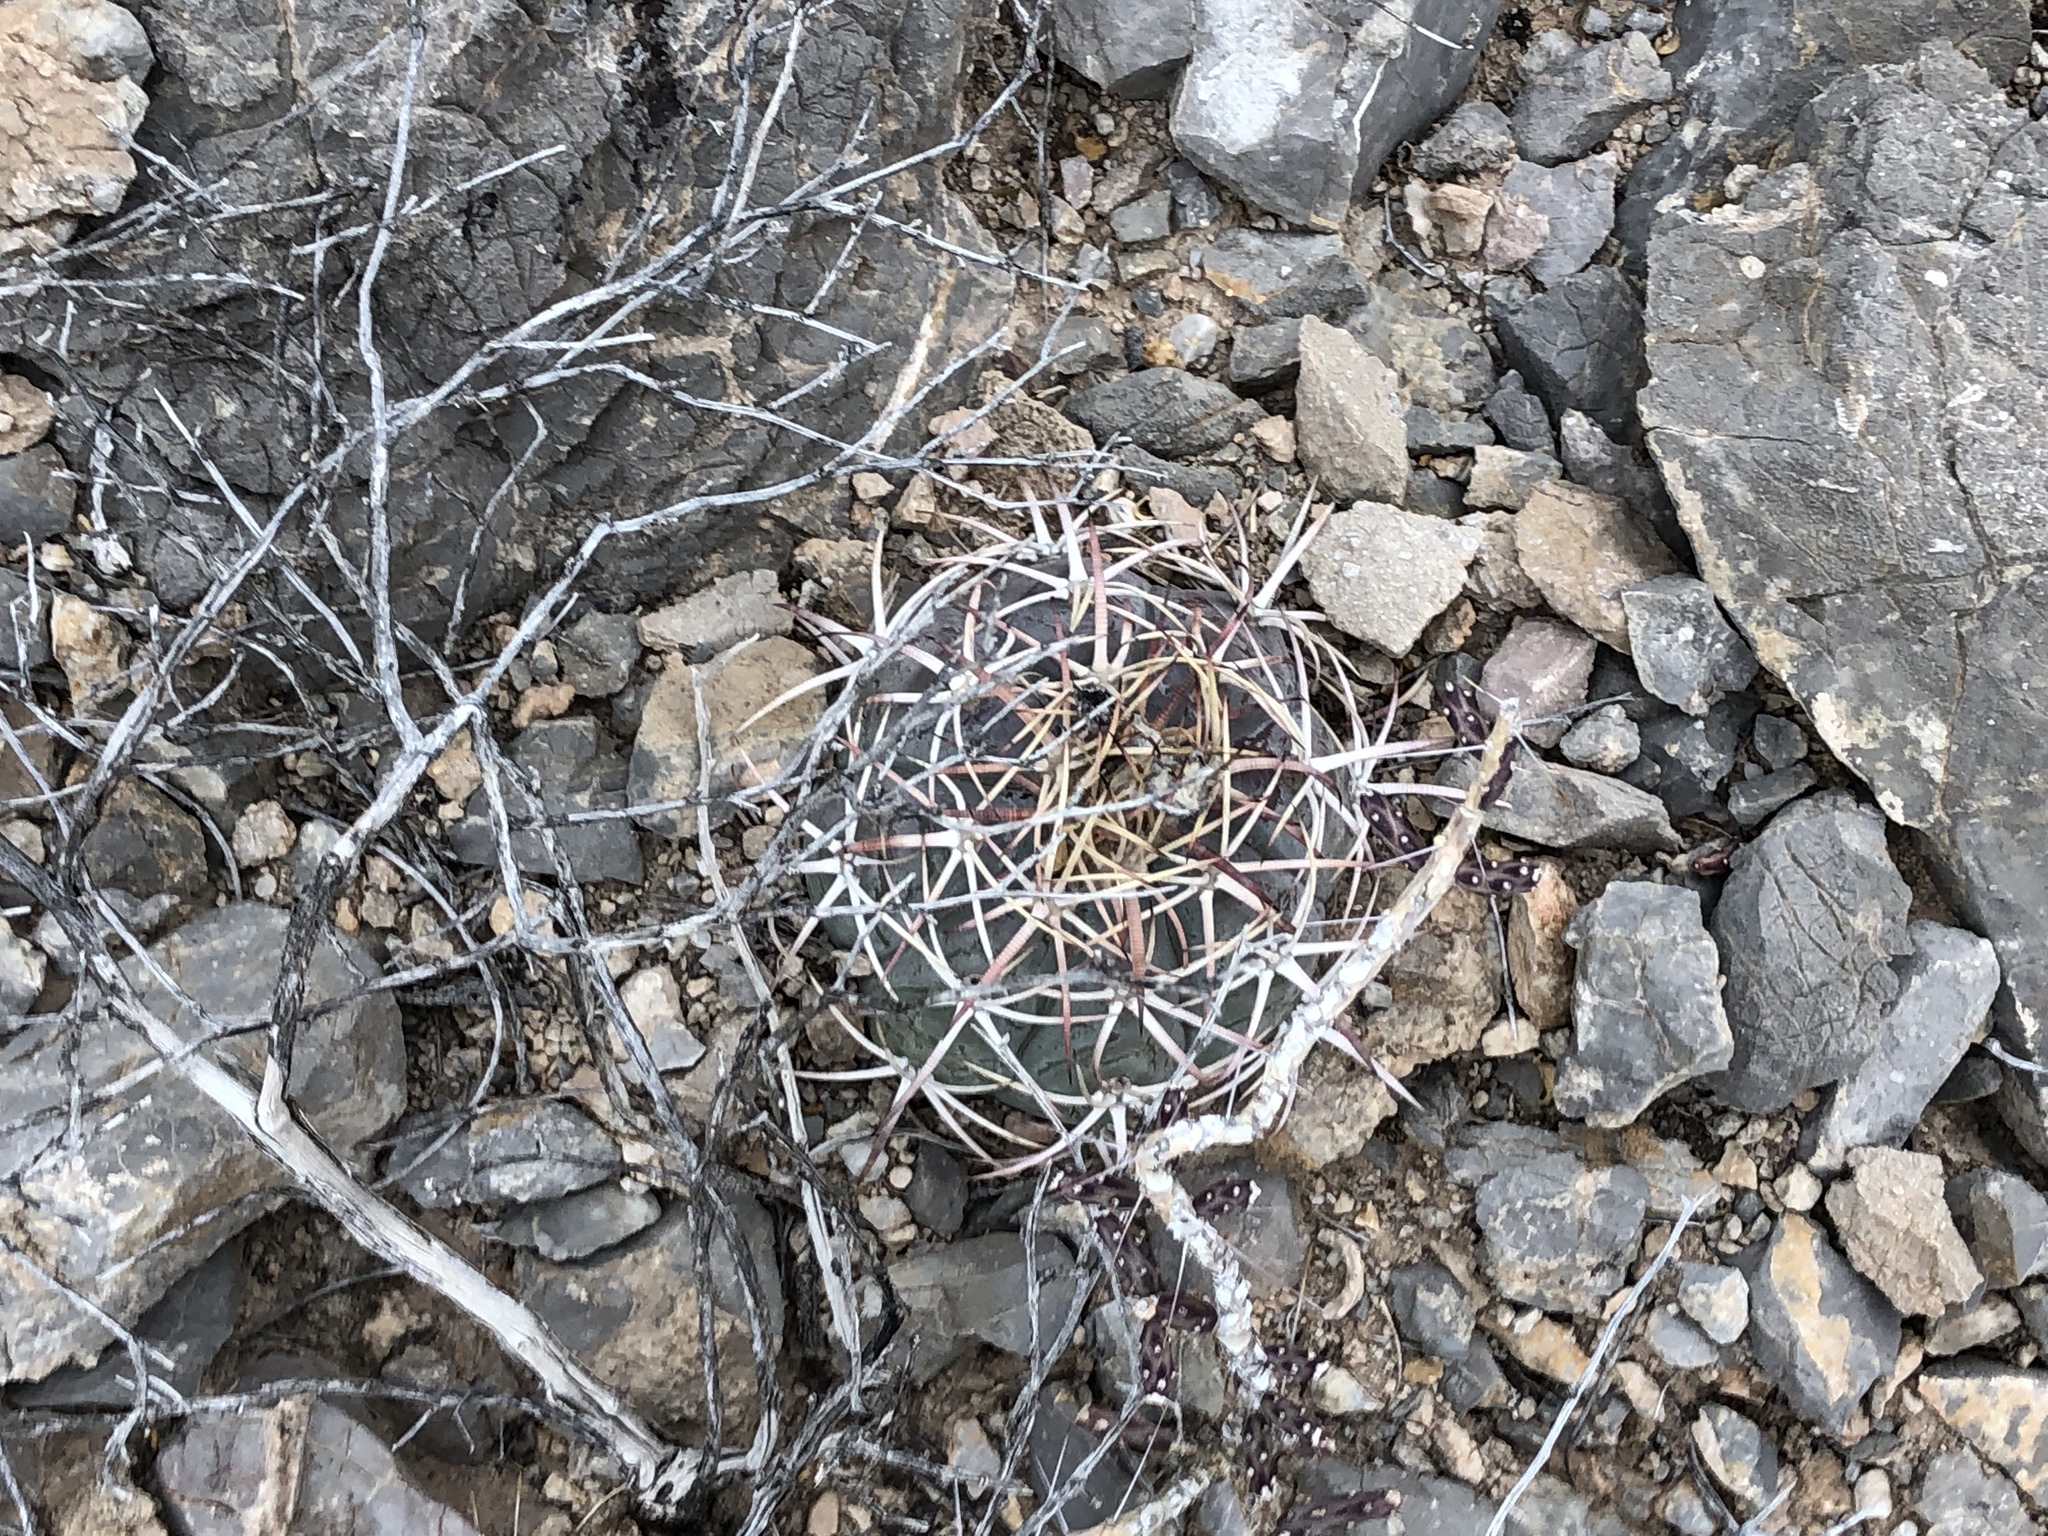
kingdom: Plantae
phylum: Tracheophyta
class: Magnoliopsida
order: Caryophyllales
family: Cactaceae
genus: Echinocactus
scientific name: Echinocactus horizonthalonius
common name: Devilshead
